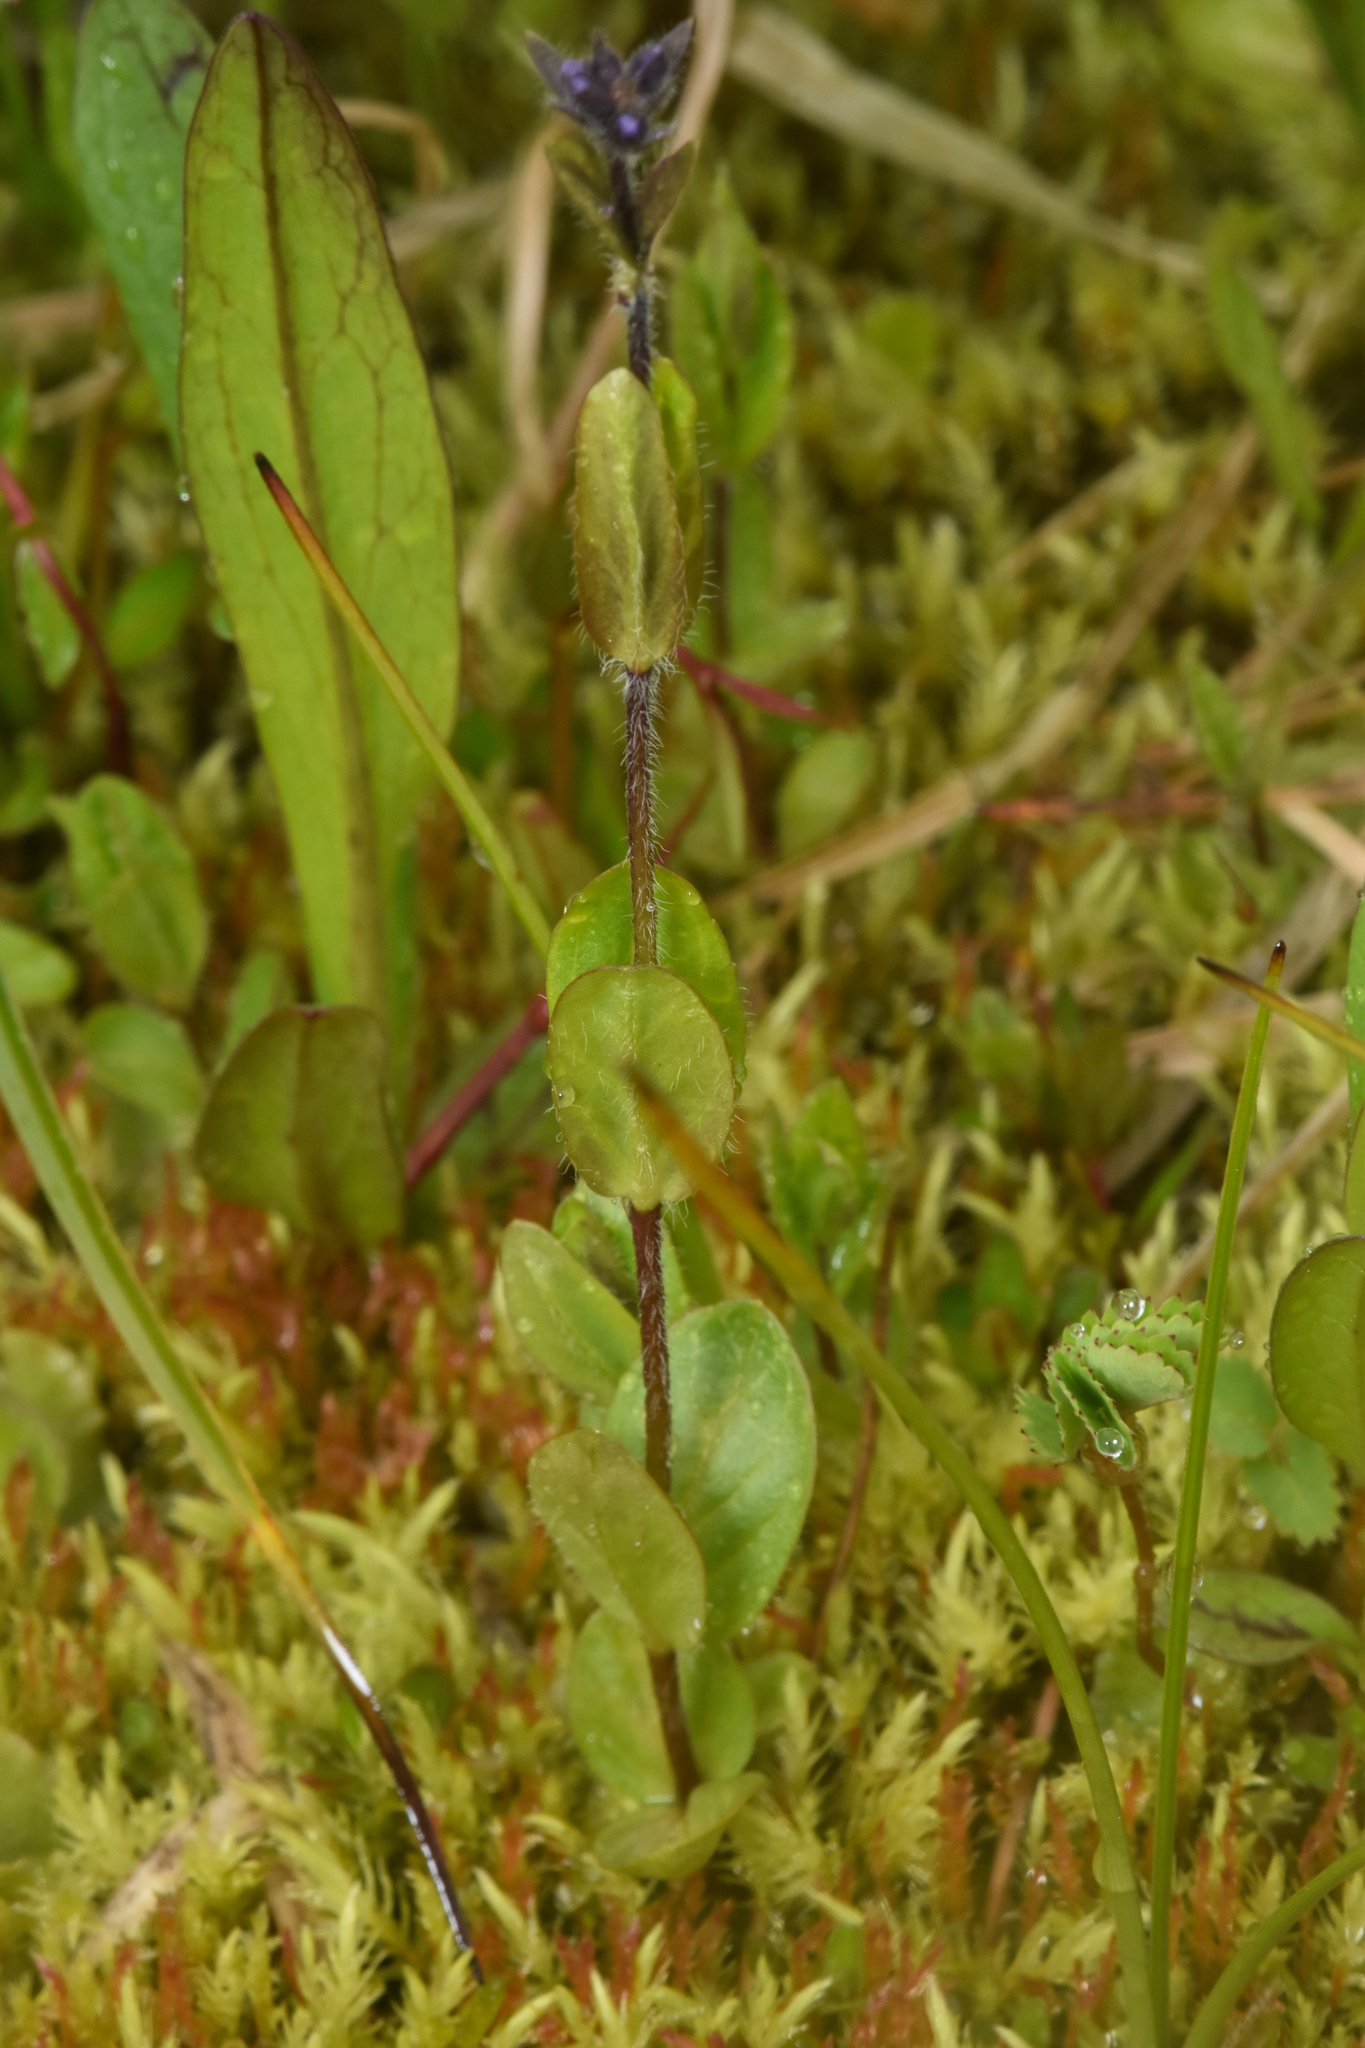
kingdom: Plantae
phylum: Tracheophyta
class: Magnoliopsida
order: Lamiales
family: Plantaginaceae
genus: Veronica
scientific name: Veronica wormskjoldii
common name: American alpine speedwell
